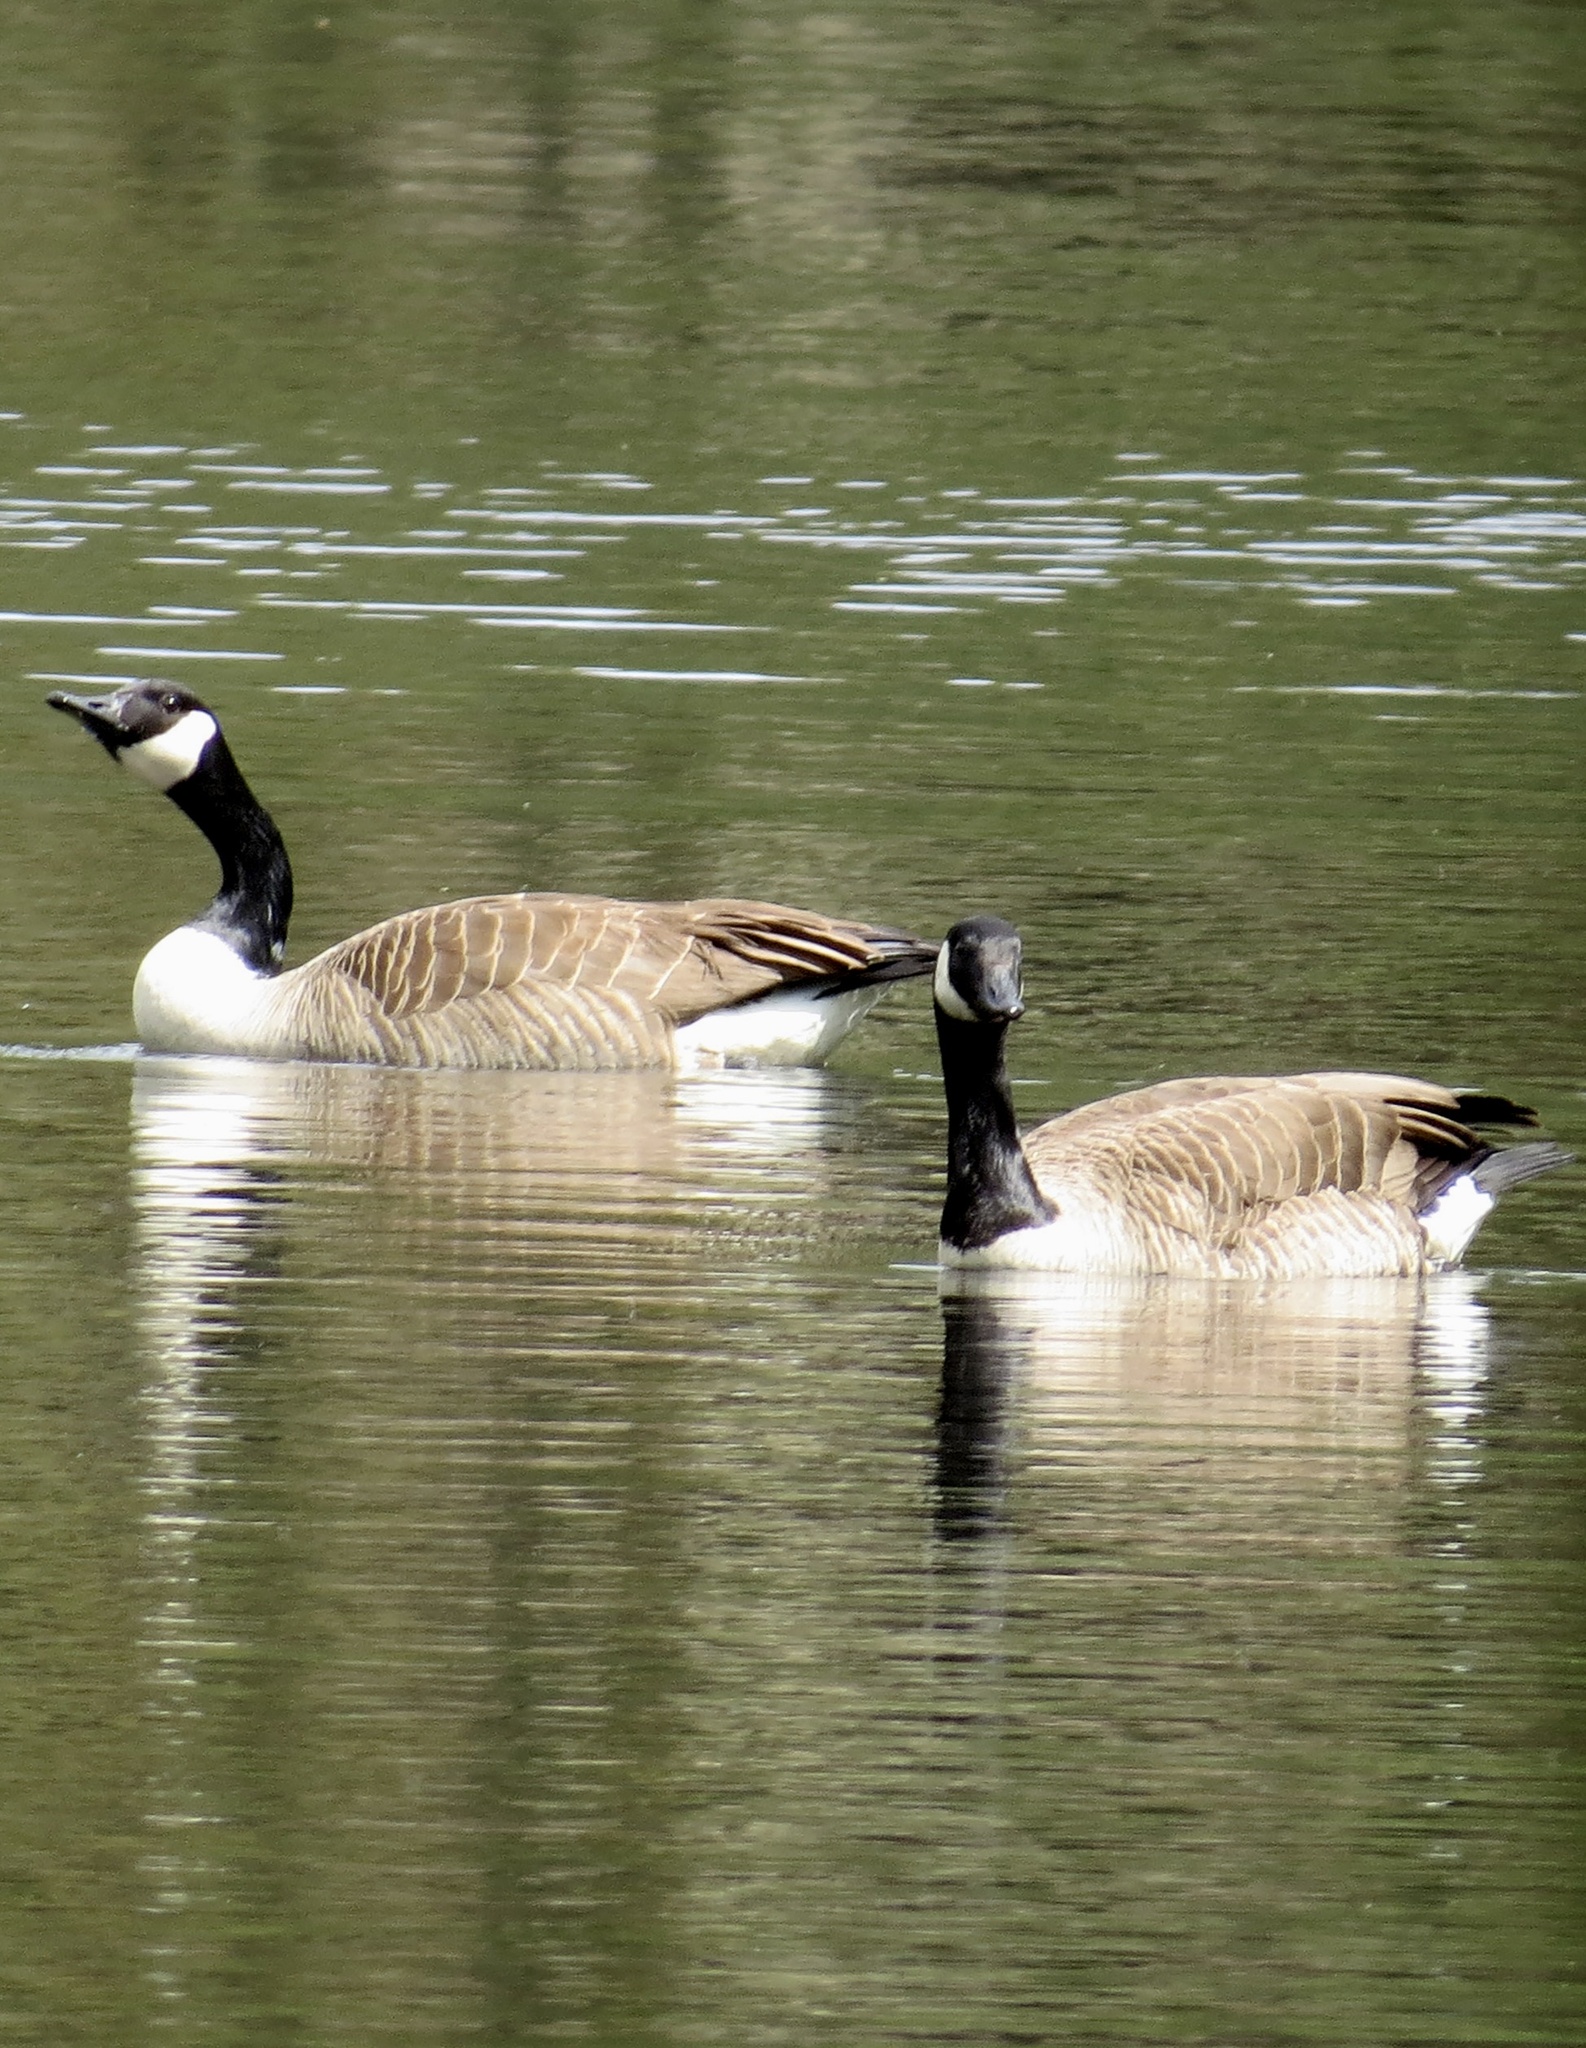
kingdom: Animalia
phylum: Chordata
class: Aves
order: Anseriformes
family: Anatidae
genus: Branta
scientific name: Branta canadensis
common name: Canada goose
